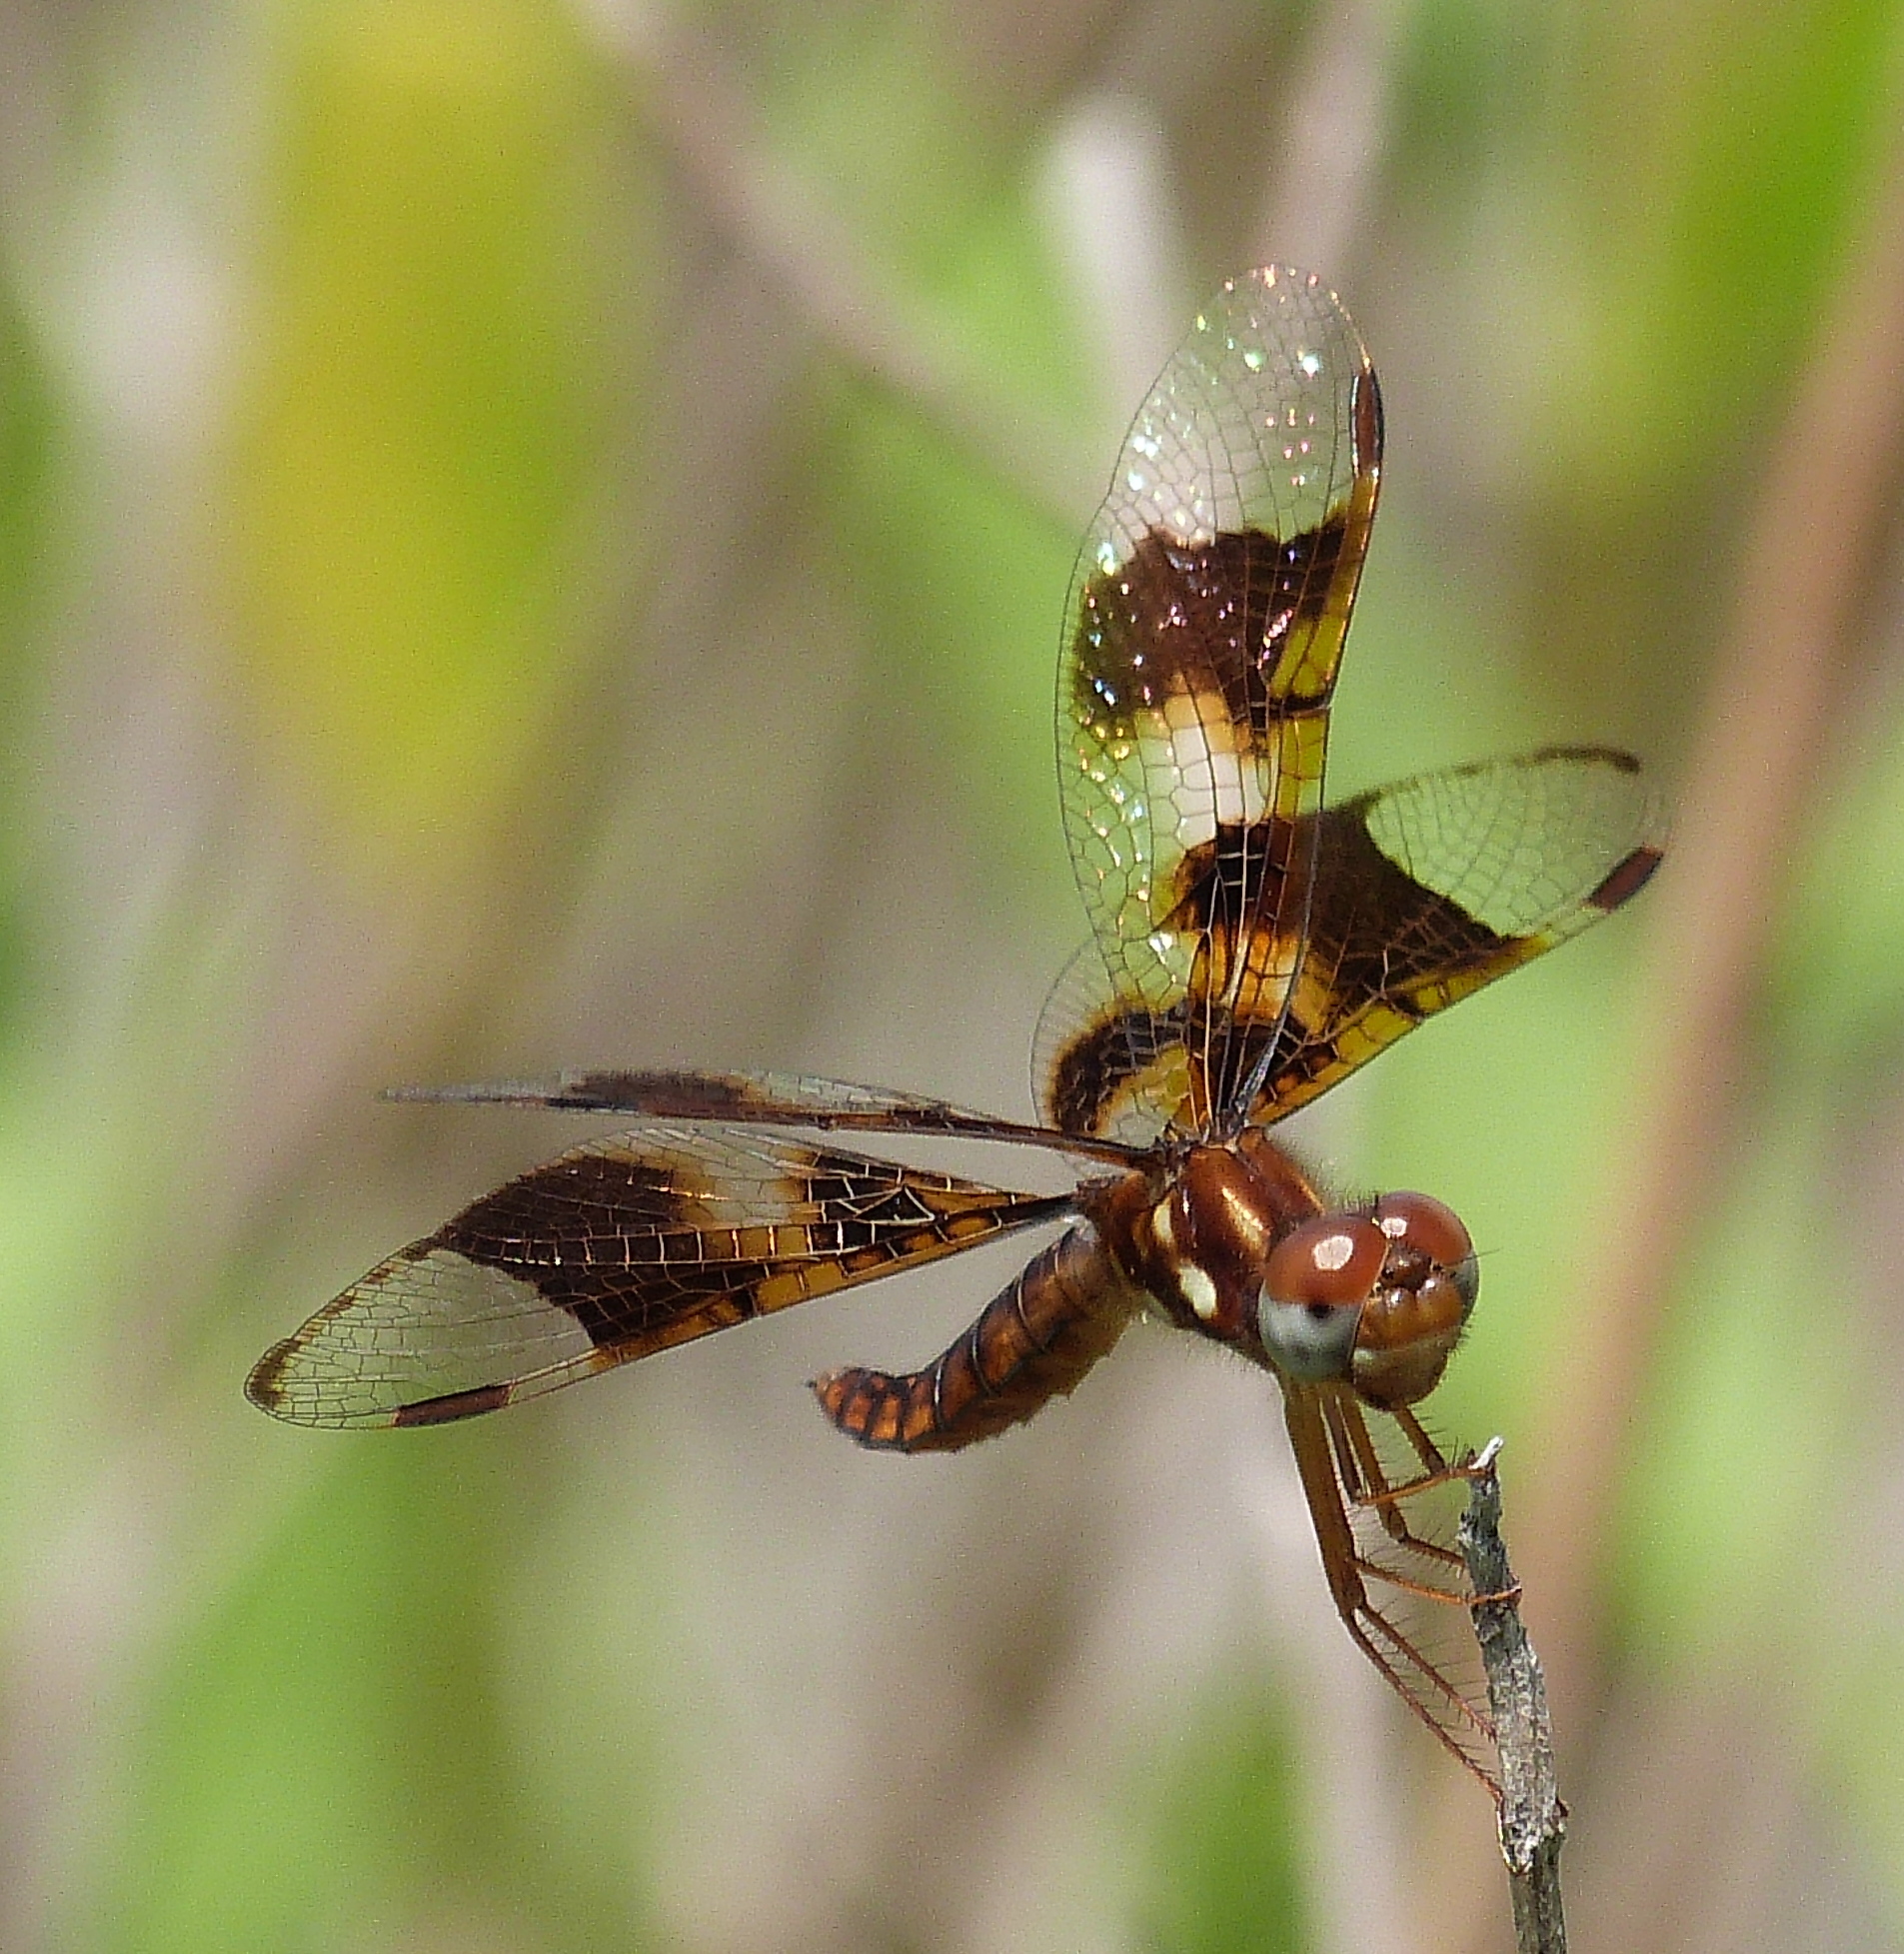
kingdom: Animalia
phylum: Arthropoda
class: Insecta
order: Odonata
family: Libellulidae
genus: Perithemis
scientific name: Perithemis tenera
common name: Eastern amberwing
